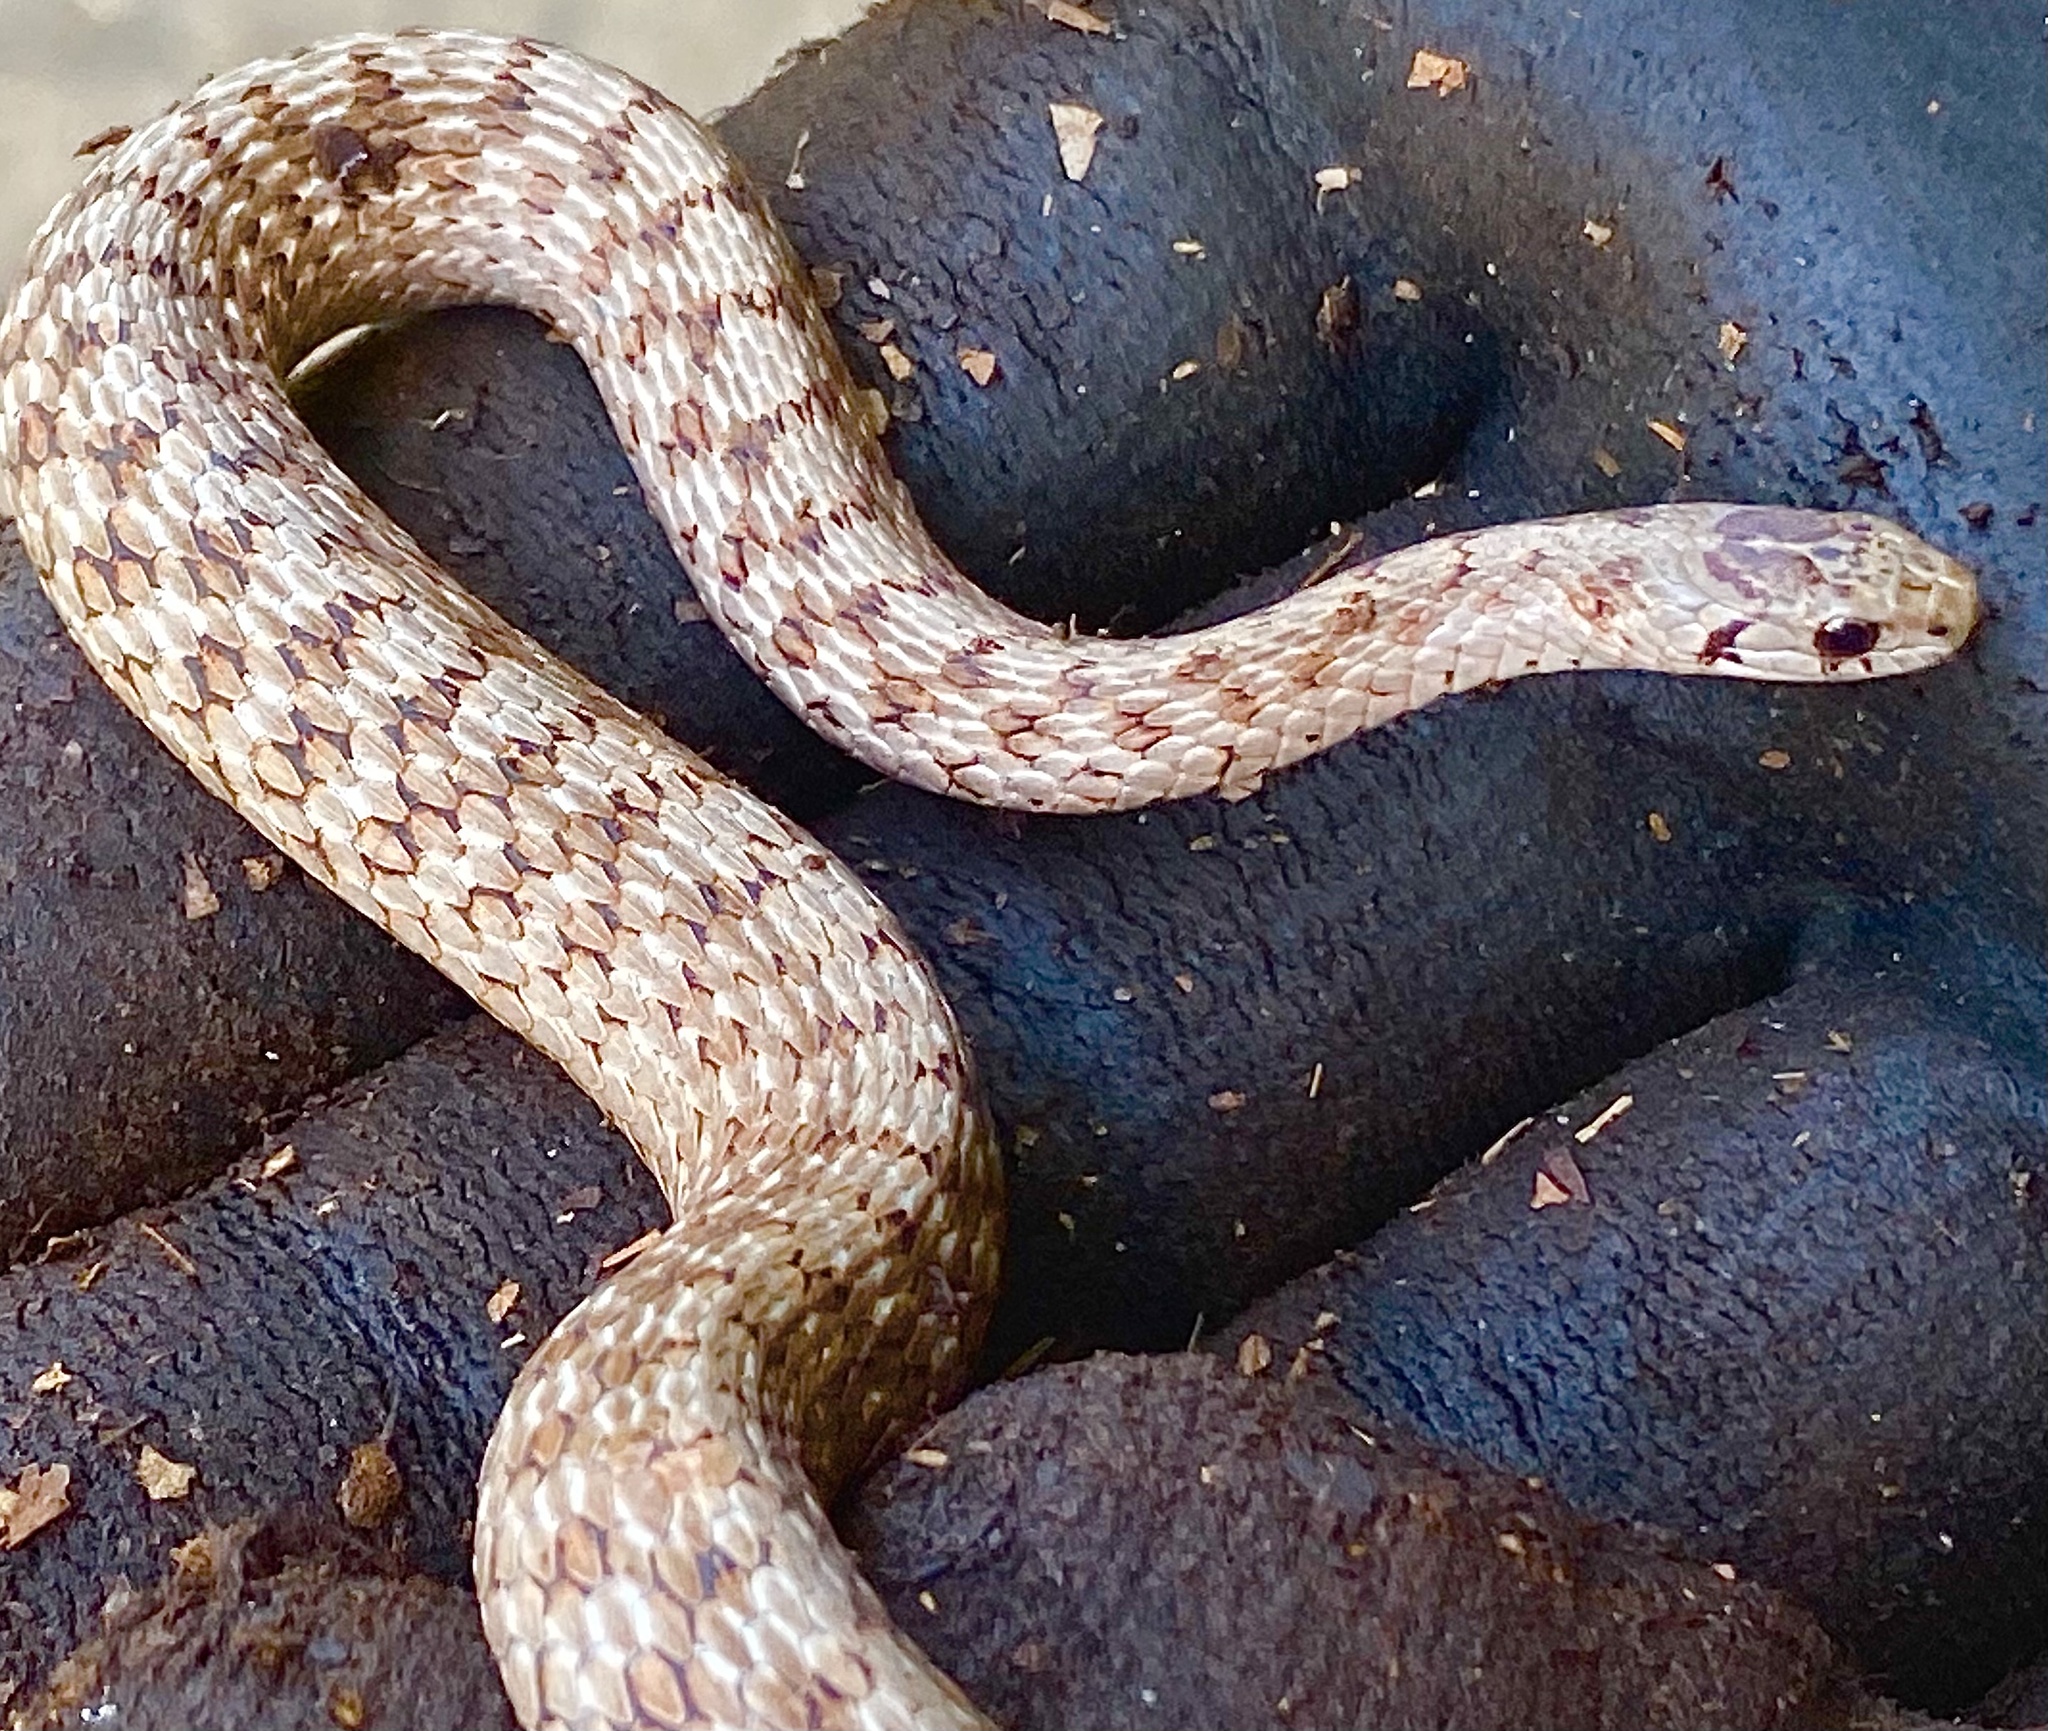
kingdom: Animalia
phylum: Chordata
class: Squamata
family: Colubridae
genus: Storeria
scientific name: Storeria dekayi
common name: (dekay’s) brown snake
